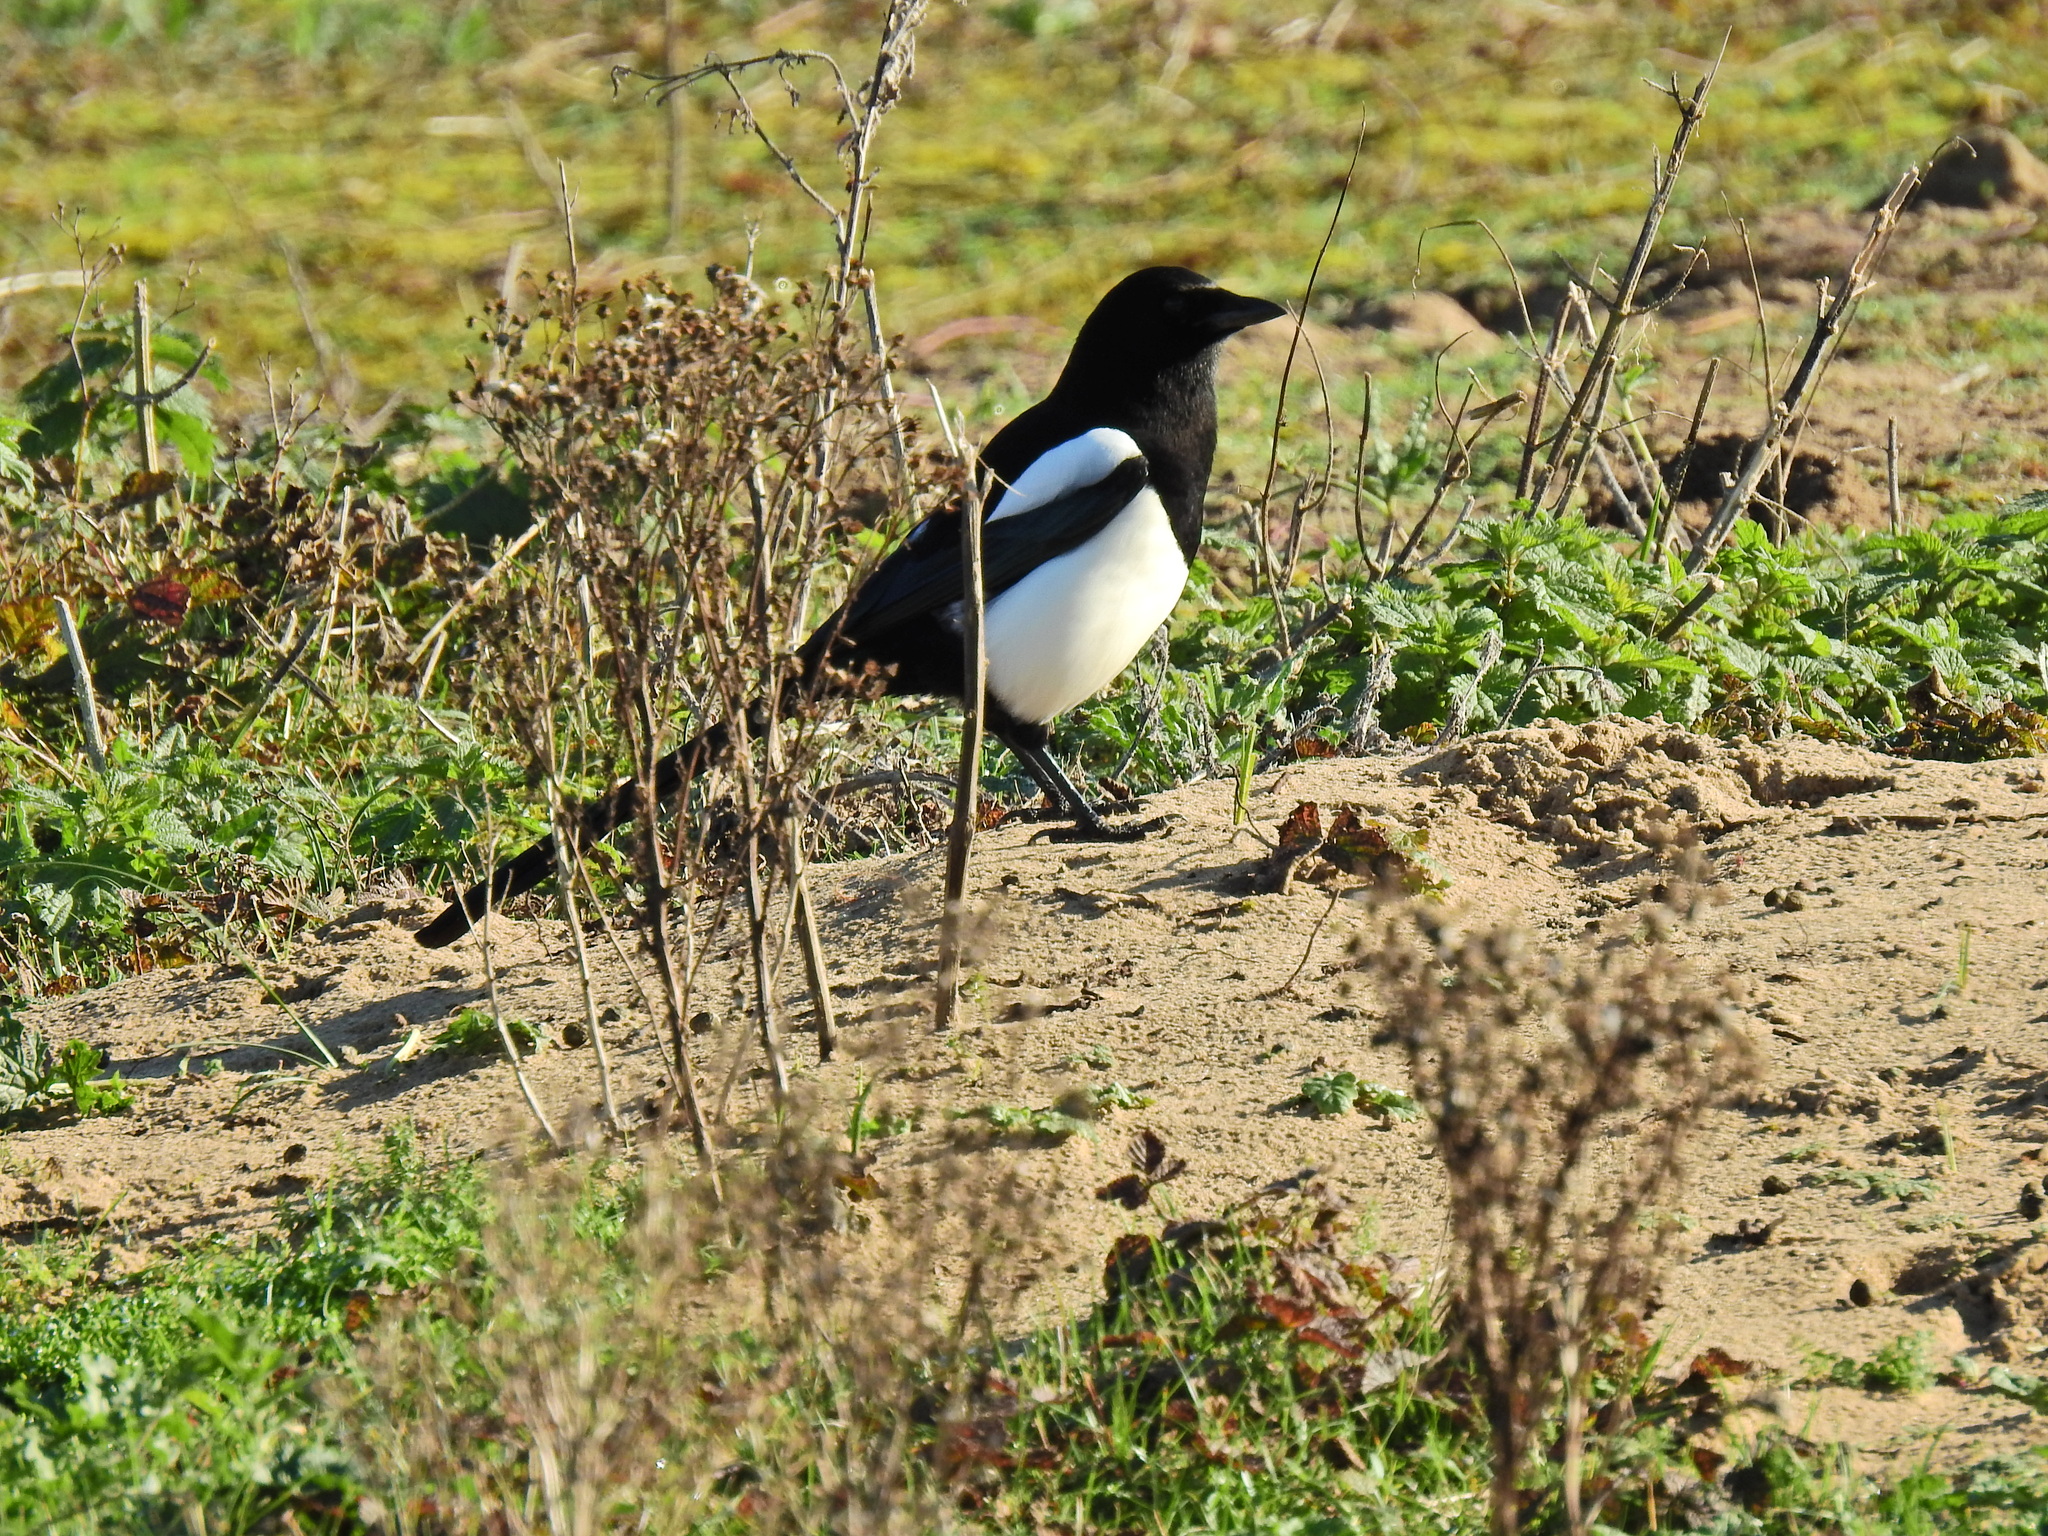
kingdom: Animalia
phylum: Chordata
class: Aves
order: Passeriformes
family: Corvidae
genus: Pica
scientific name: Pica pica
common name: Eurasian magpie
